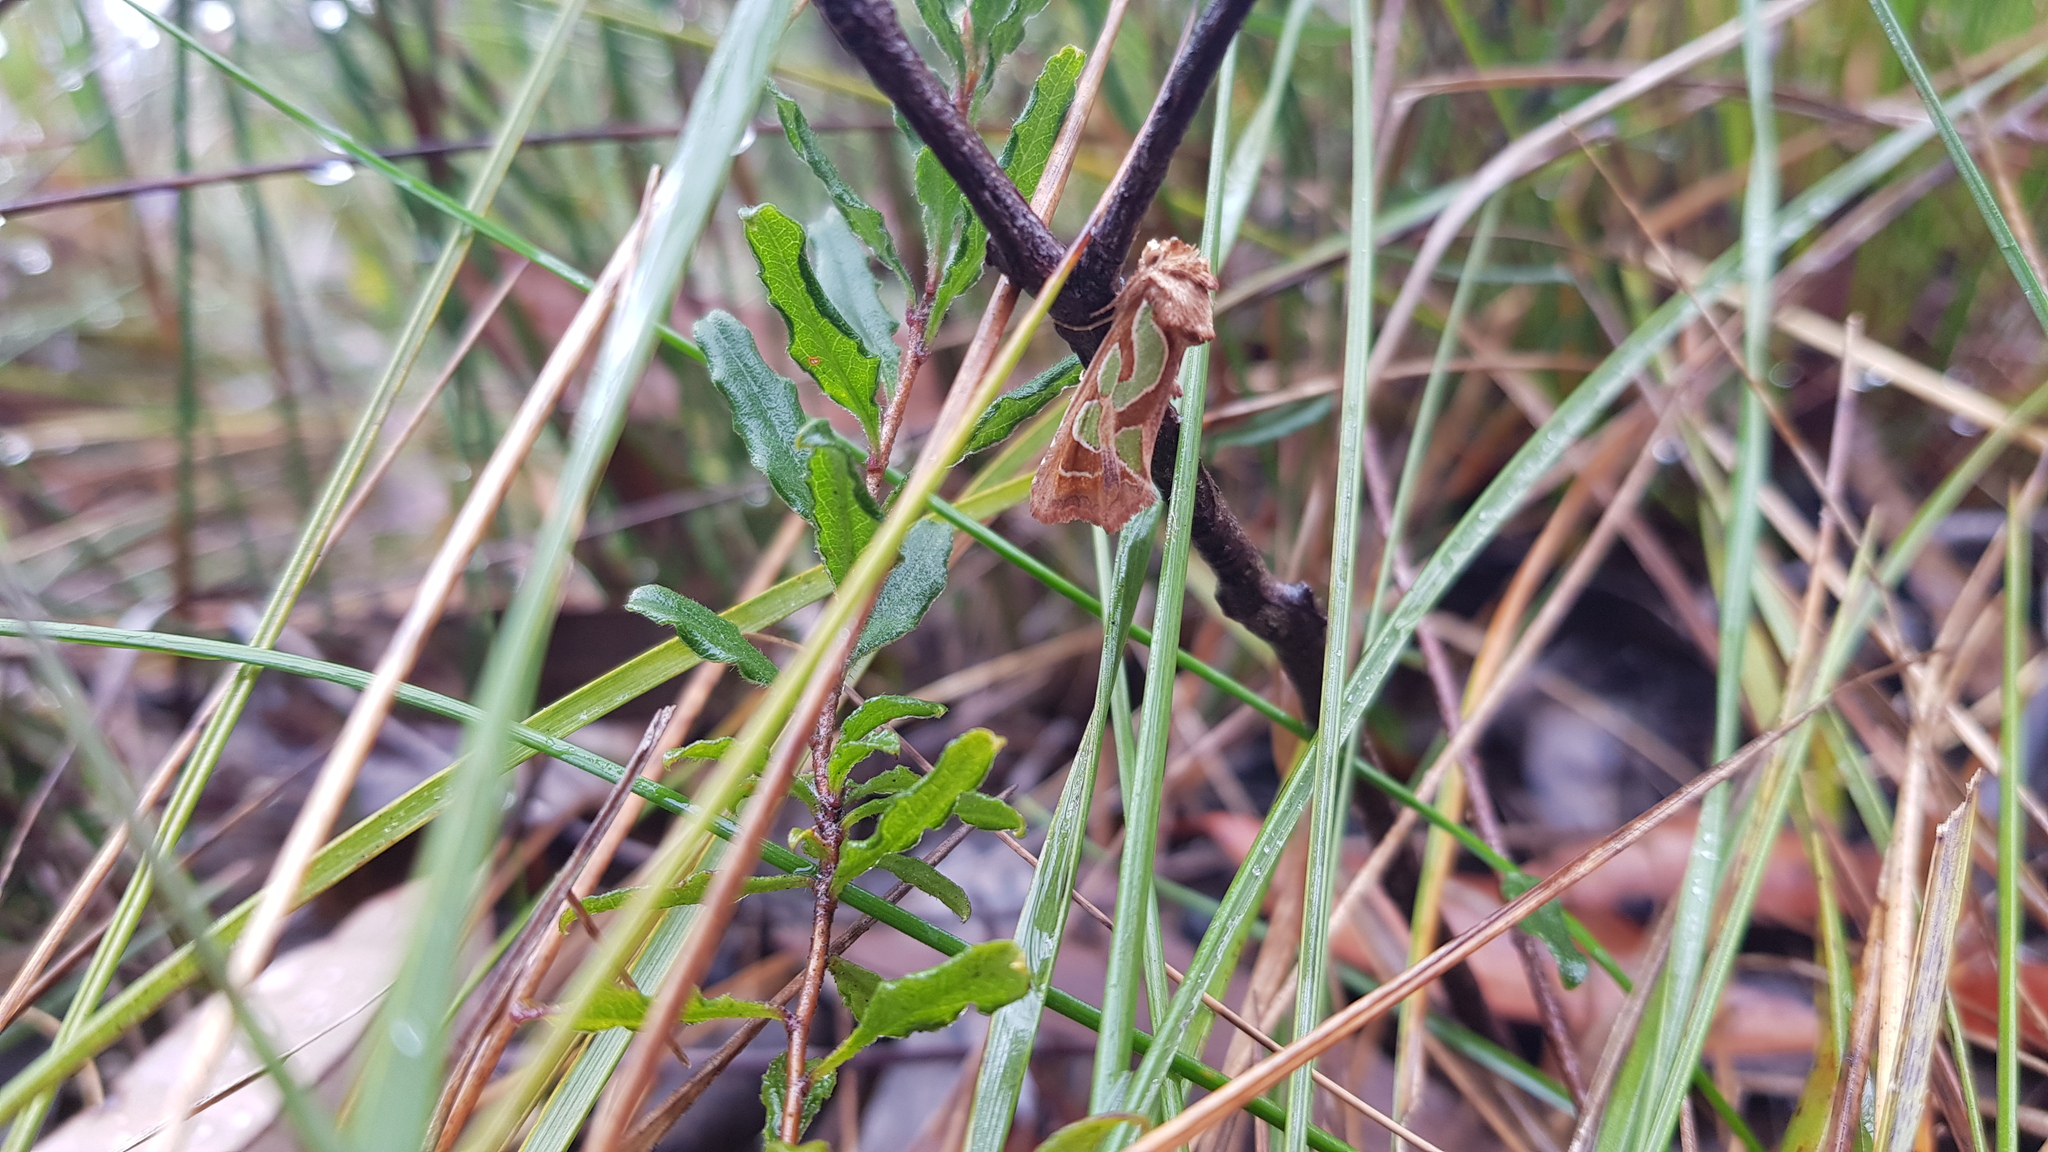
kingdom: Animalia
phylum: Arthropoda
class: Insecta
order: Lepidoptera
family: Noctuidae
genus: Cosmodes
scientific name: Cosmodes elegans
